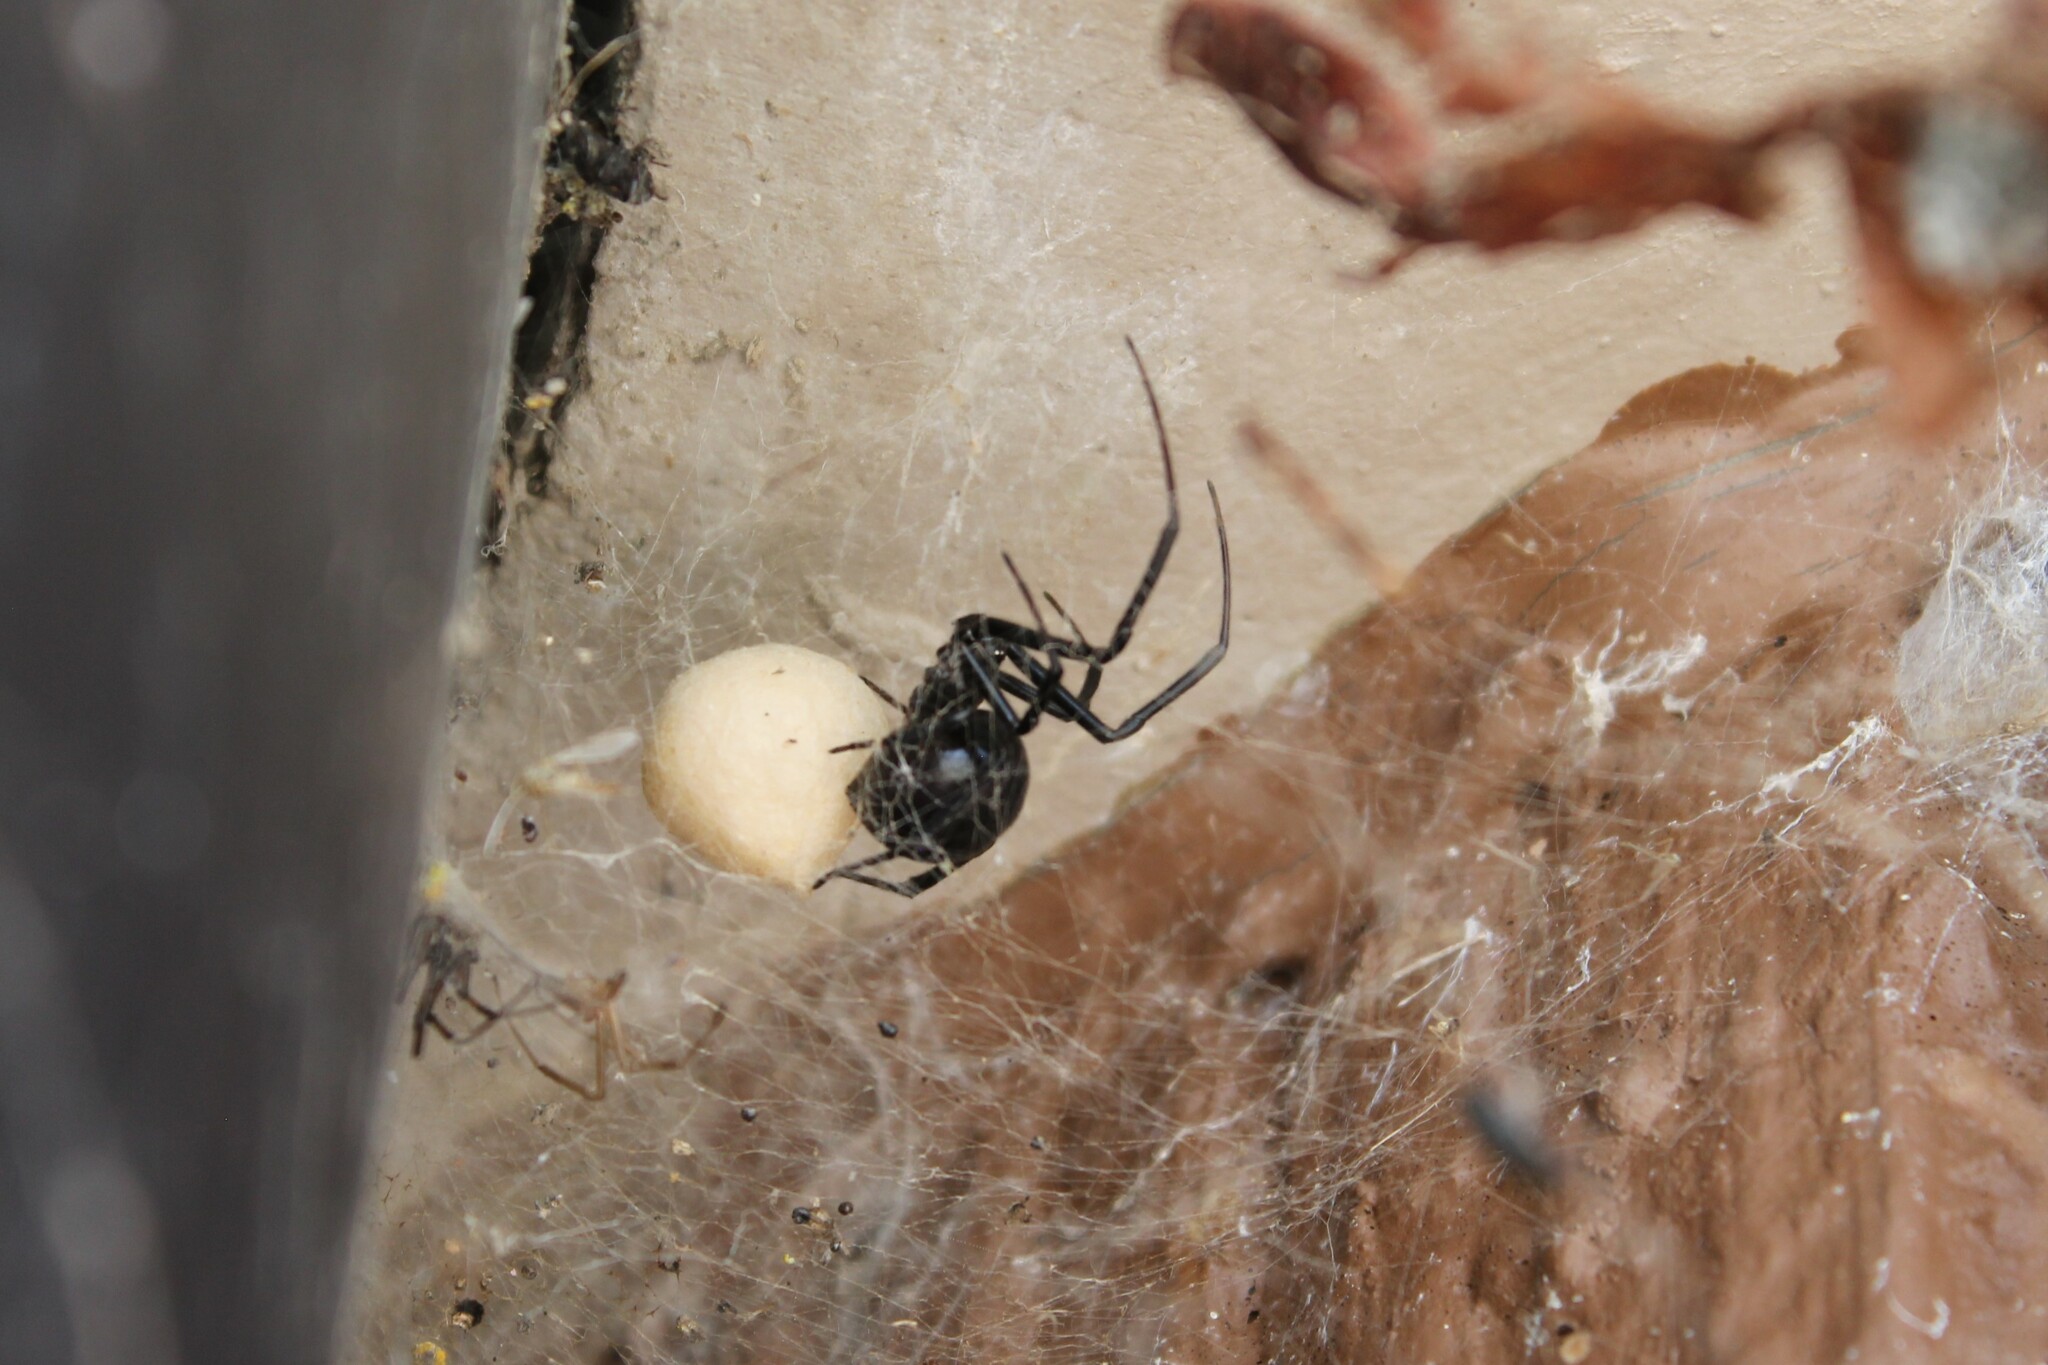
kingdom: Animalia
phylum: Arthropoda
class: Arachnida
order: Araneae
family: Theridiidae
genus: Latrodectus
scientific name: Latrodectus hesperus
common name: Western black widow
